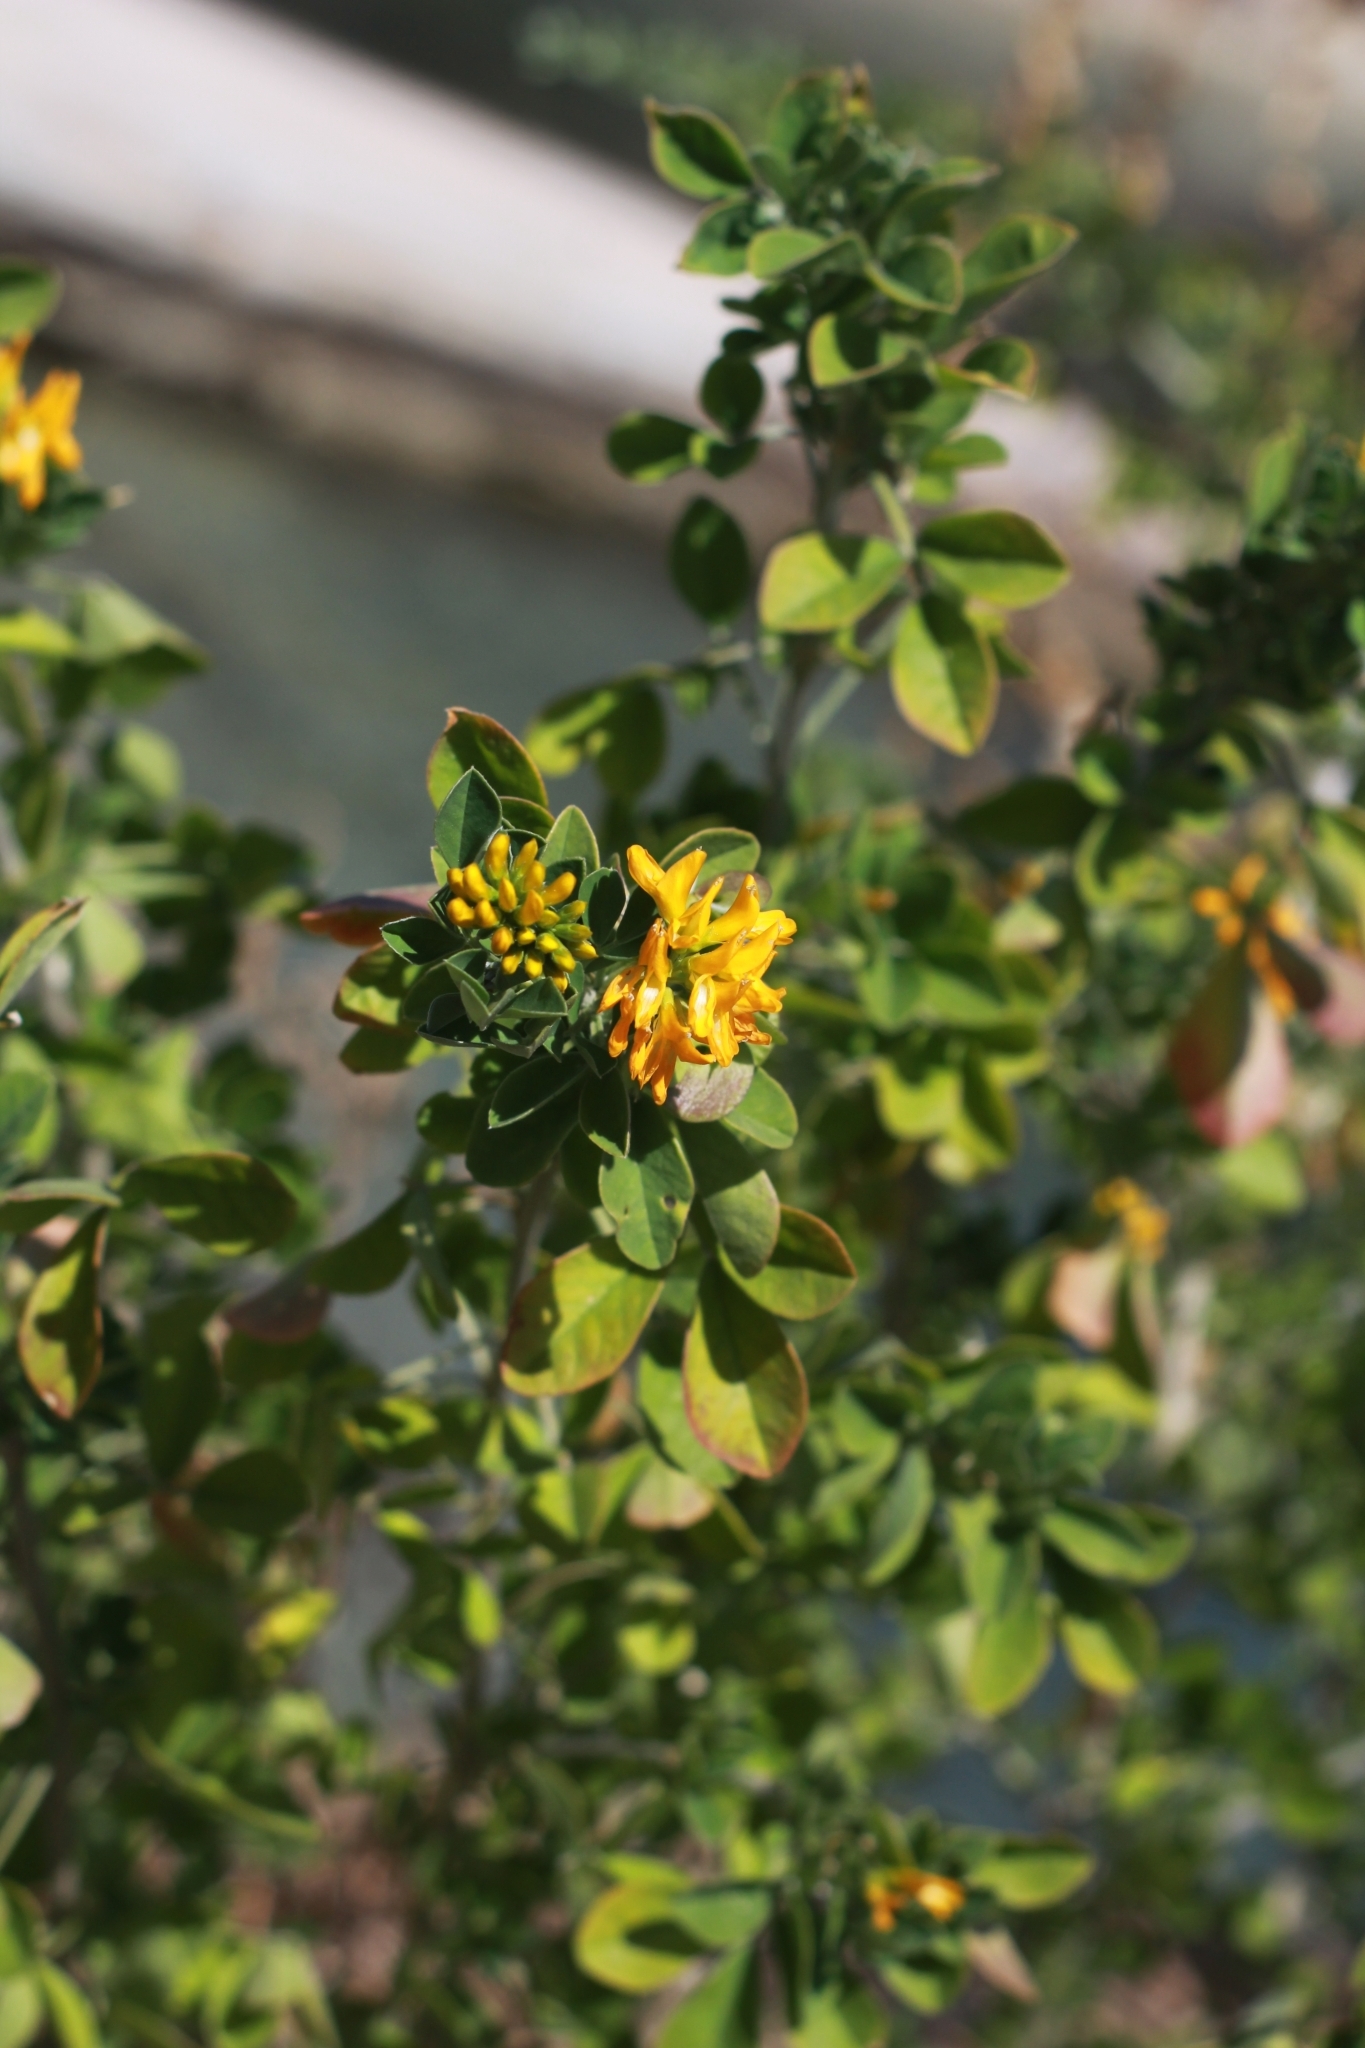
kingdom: Plantae
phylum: Tracheophyta
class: Magnoliopsida
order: Fabales
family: Fabaceae
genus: Medicago
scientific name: Medicago arborea
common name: Moon trefoil
